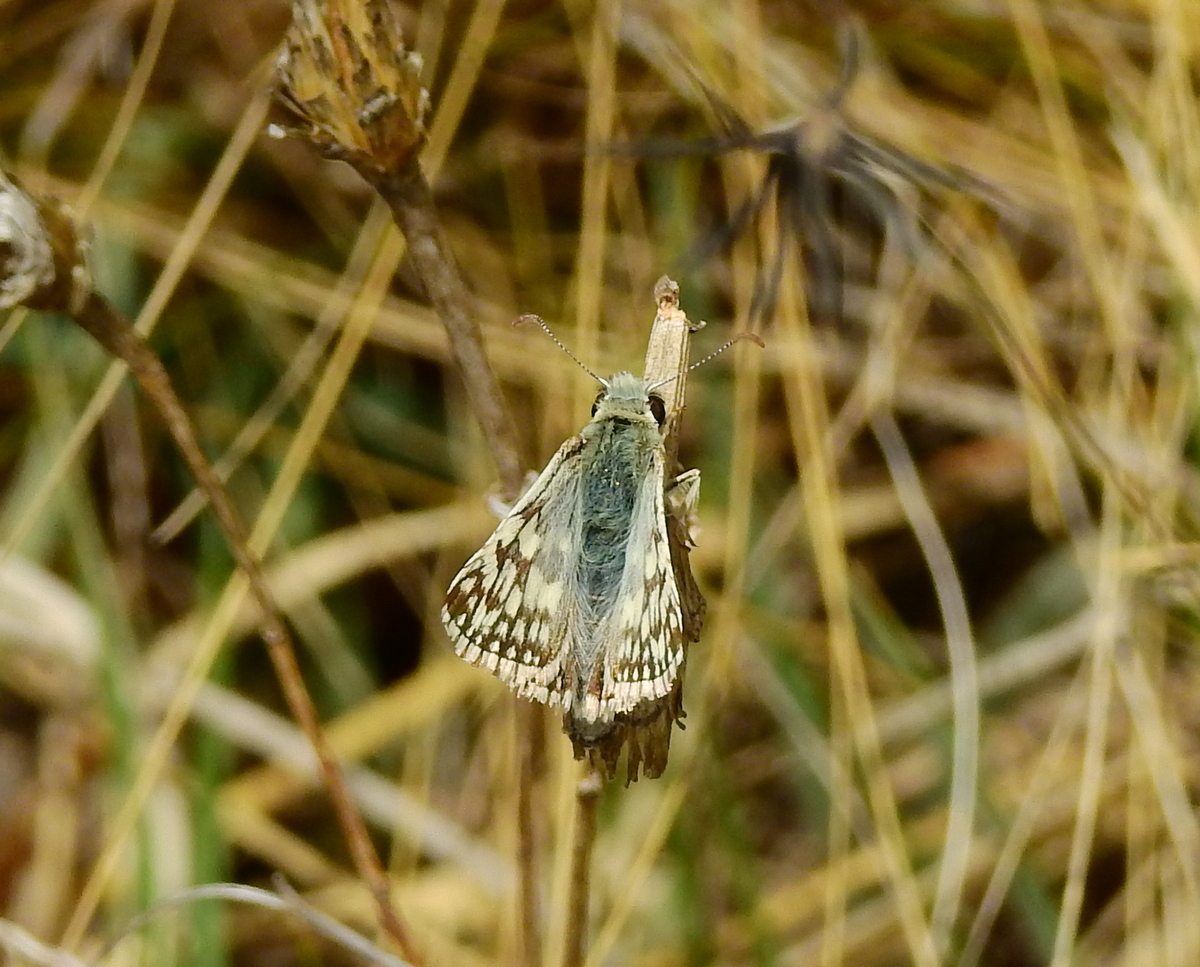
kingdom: Animalia
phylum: Arthropoda
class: Insecta
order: Lepidoptera
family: Hesperiidae
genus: Heliopetes
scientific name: Heliopetes americanus
